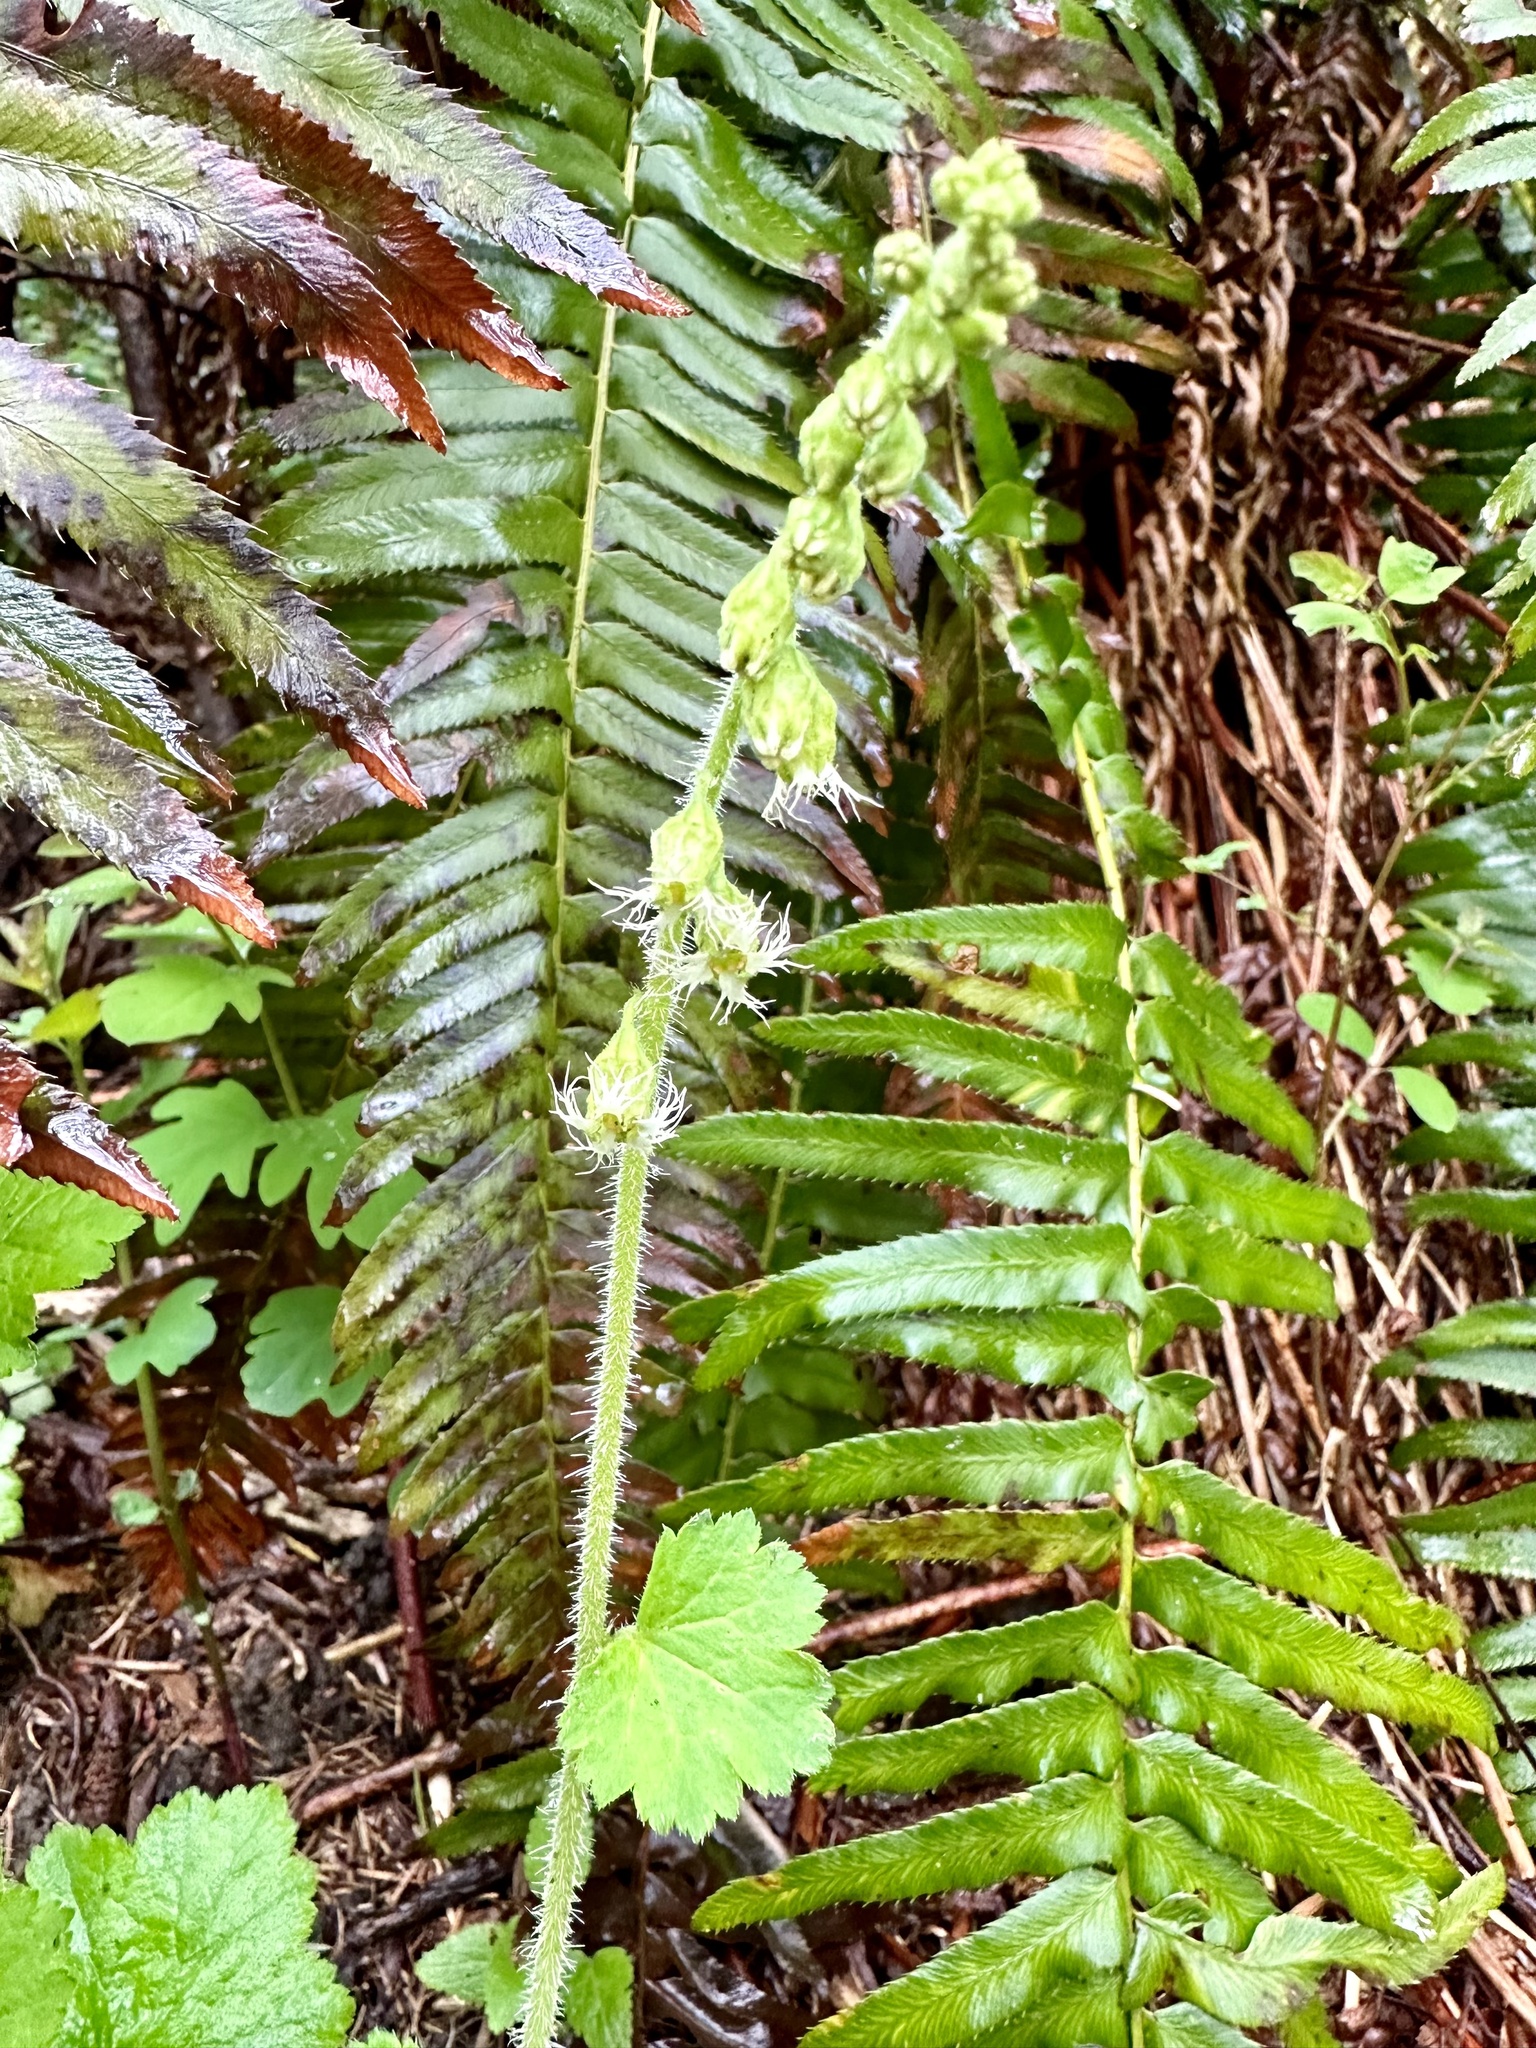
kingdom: Plantae
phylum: Tracheophyta
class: Magnoliopsida
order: Saxifragales
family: Saxifragaceae
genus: Tellima
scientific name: Tellima grandiflora
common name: Fringecups
